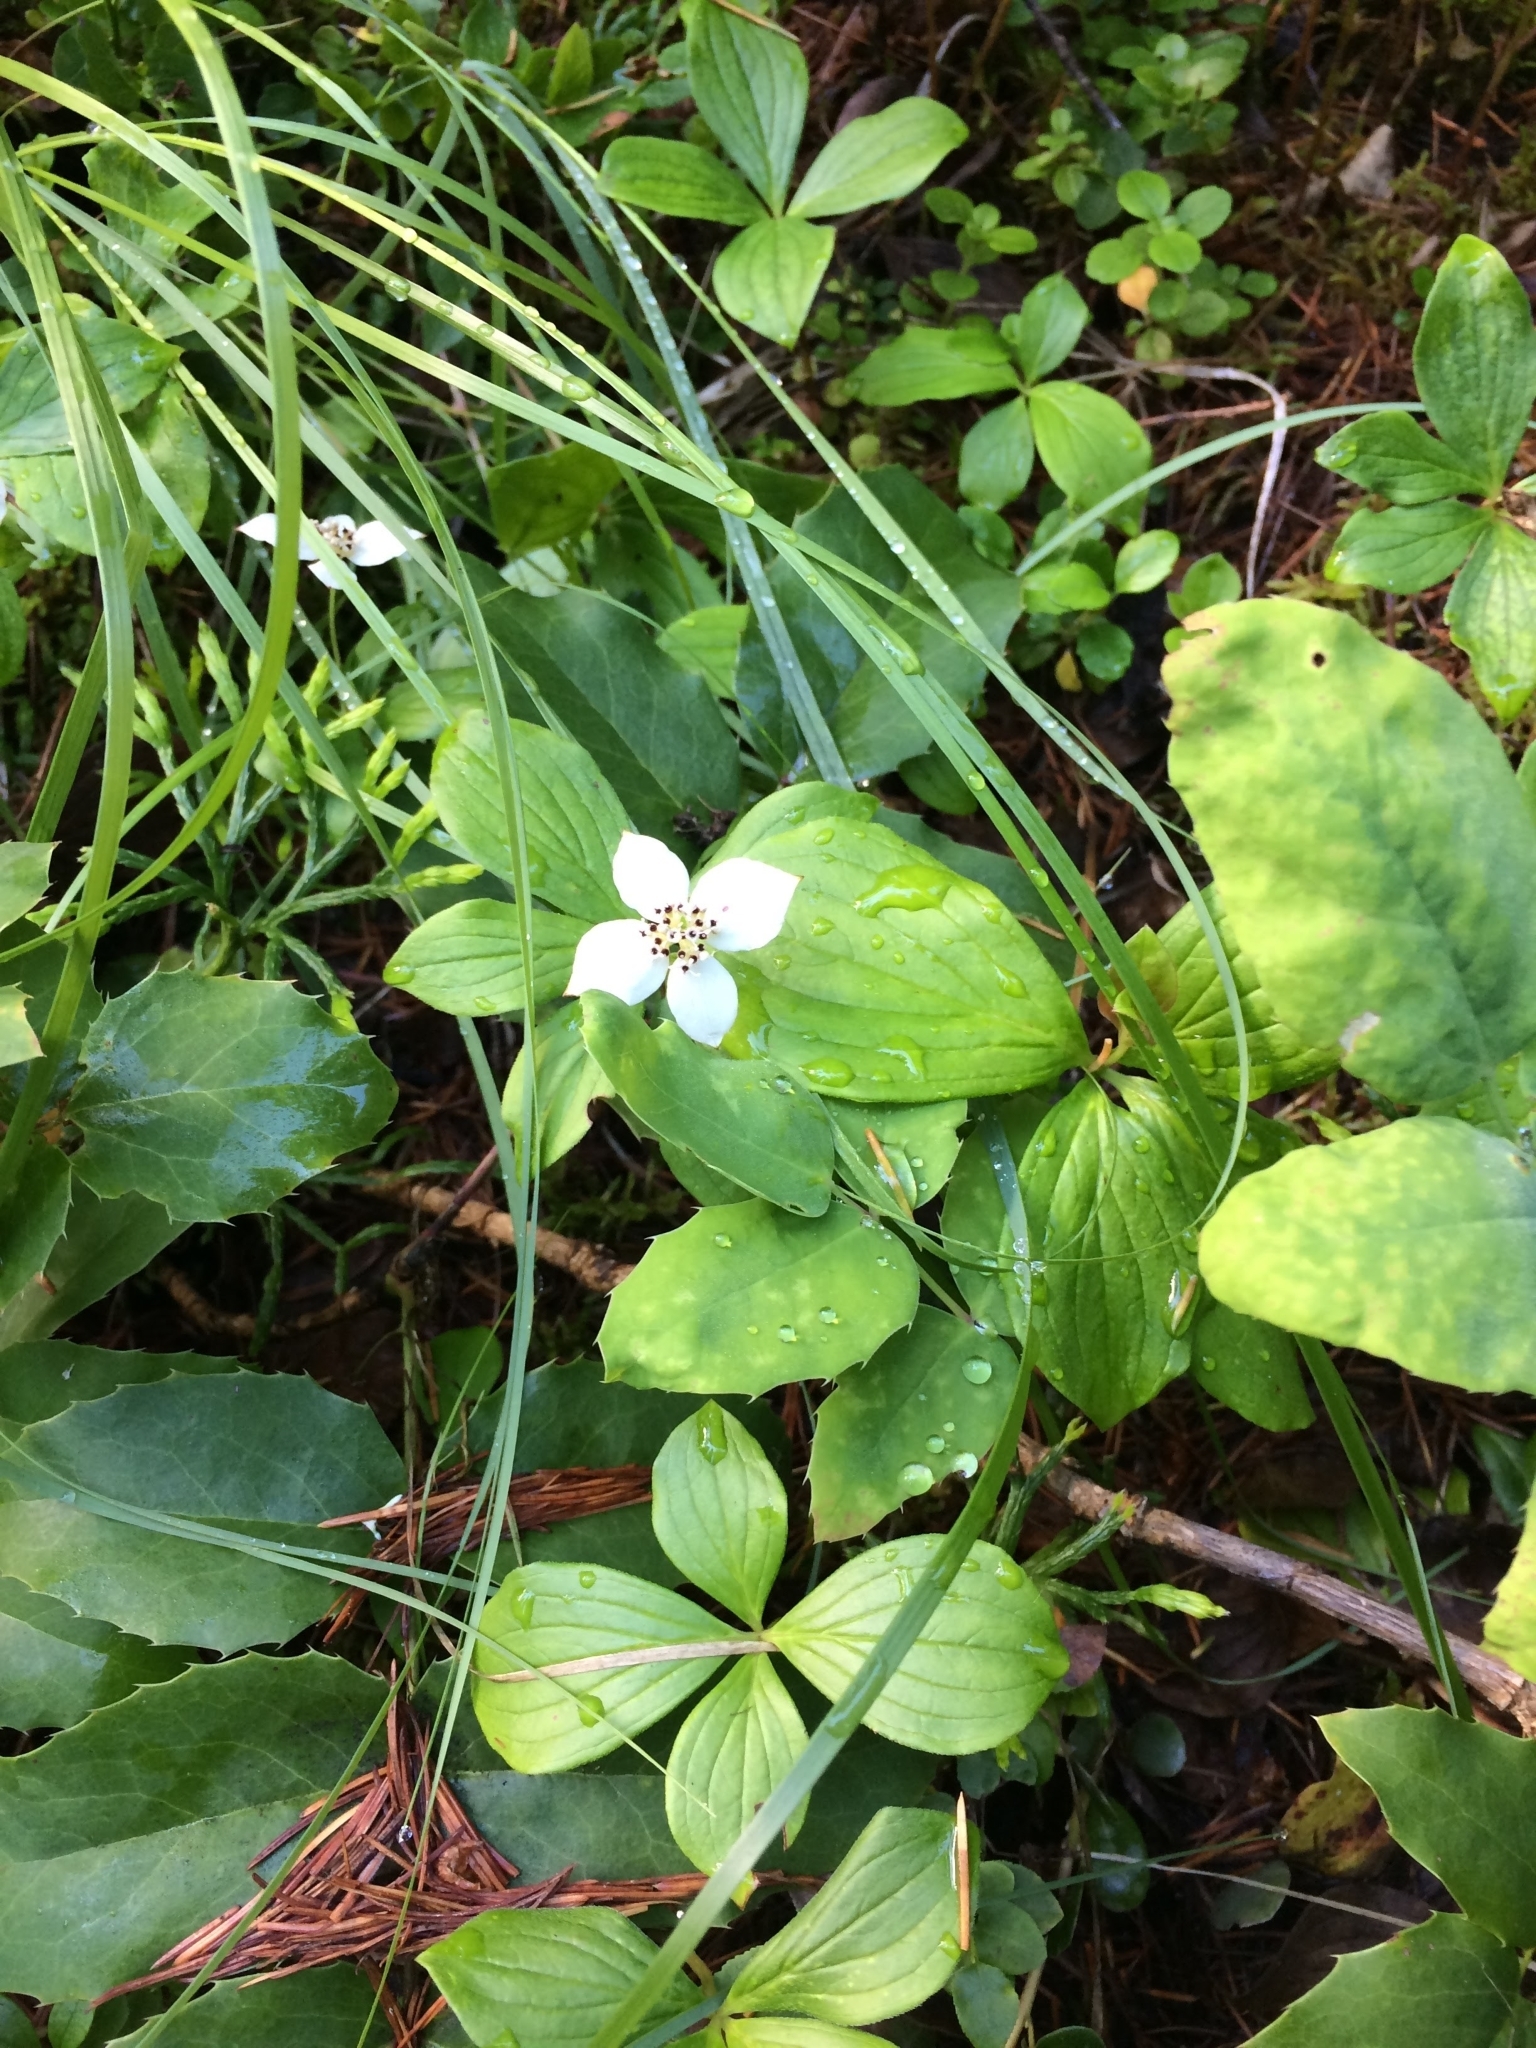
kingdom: Plantae
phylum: Tracheophyta
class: Magnoliopsida
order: Cornales
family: Cornaceae
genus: Cornus
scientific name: Cornus canadensis
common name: Creeping dogwood
